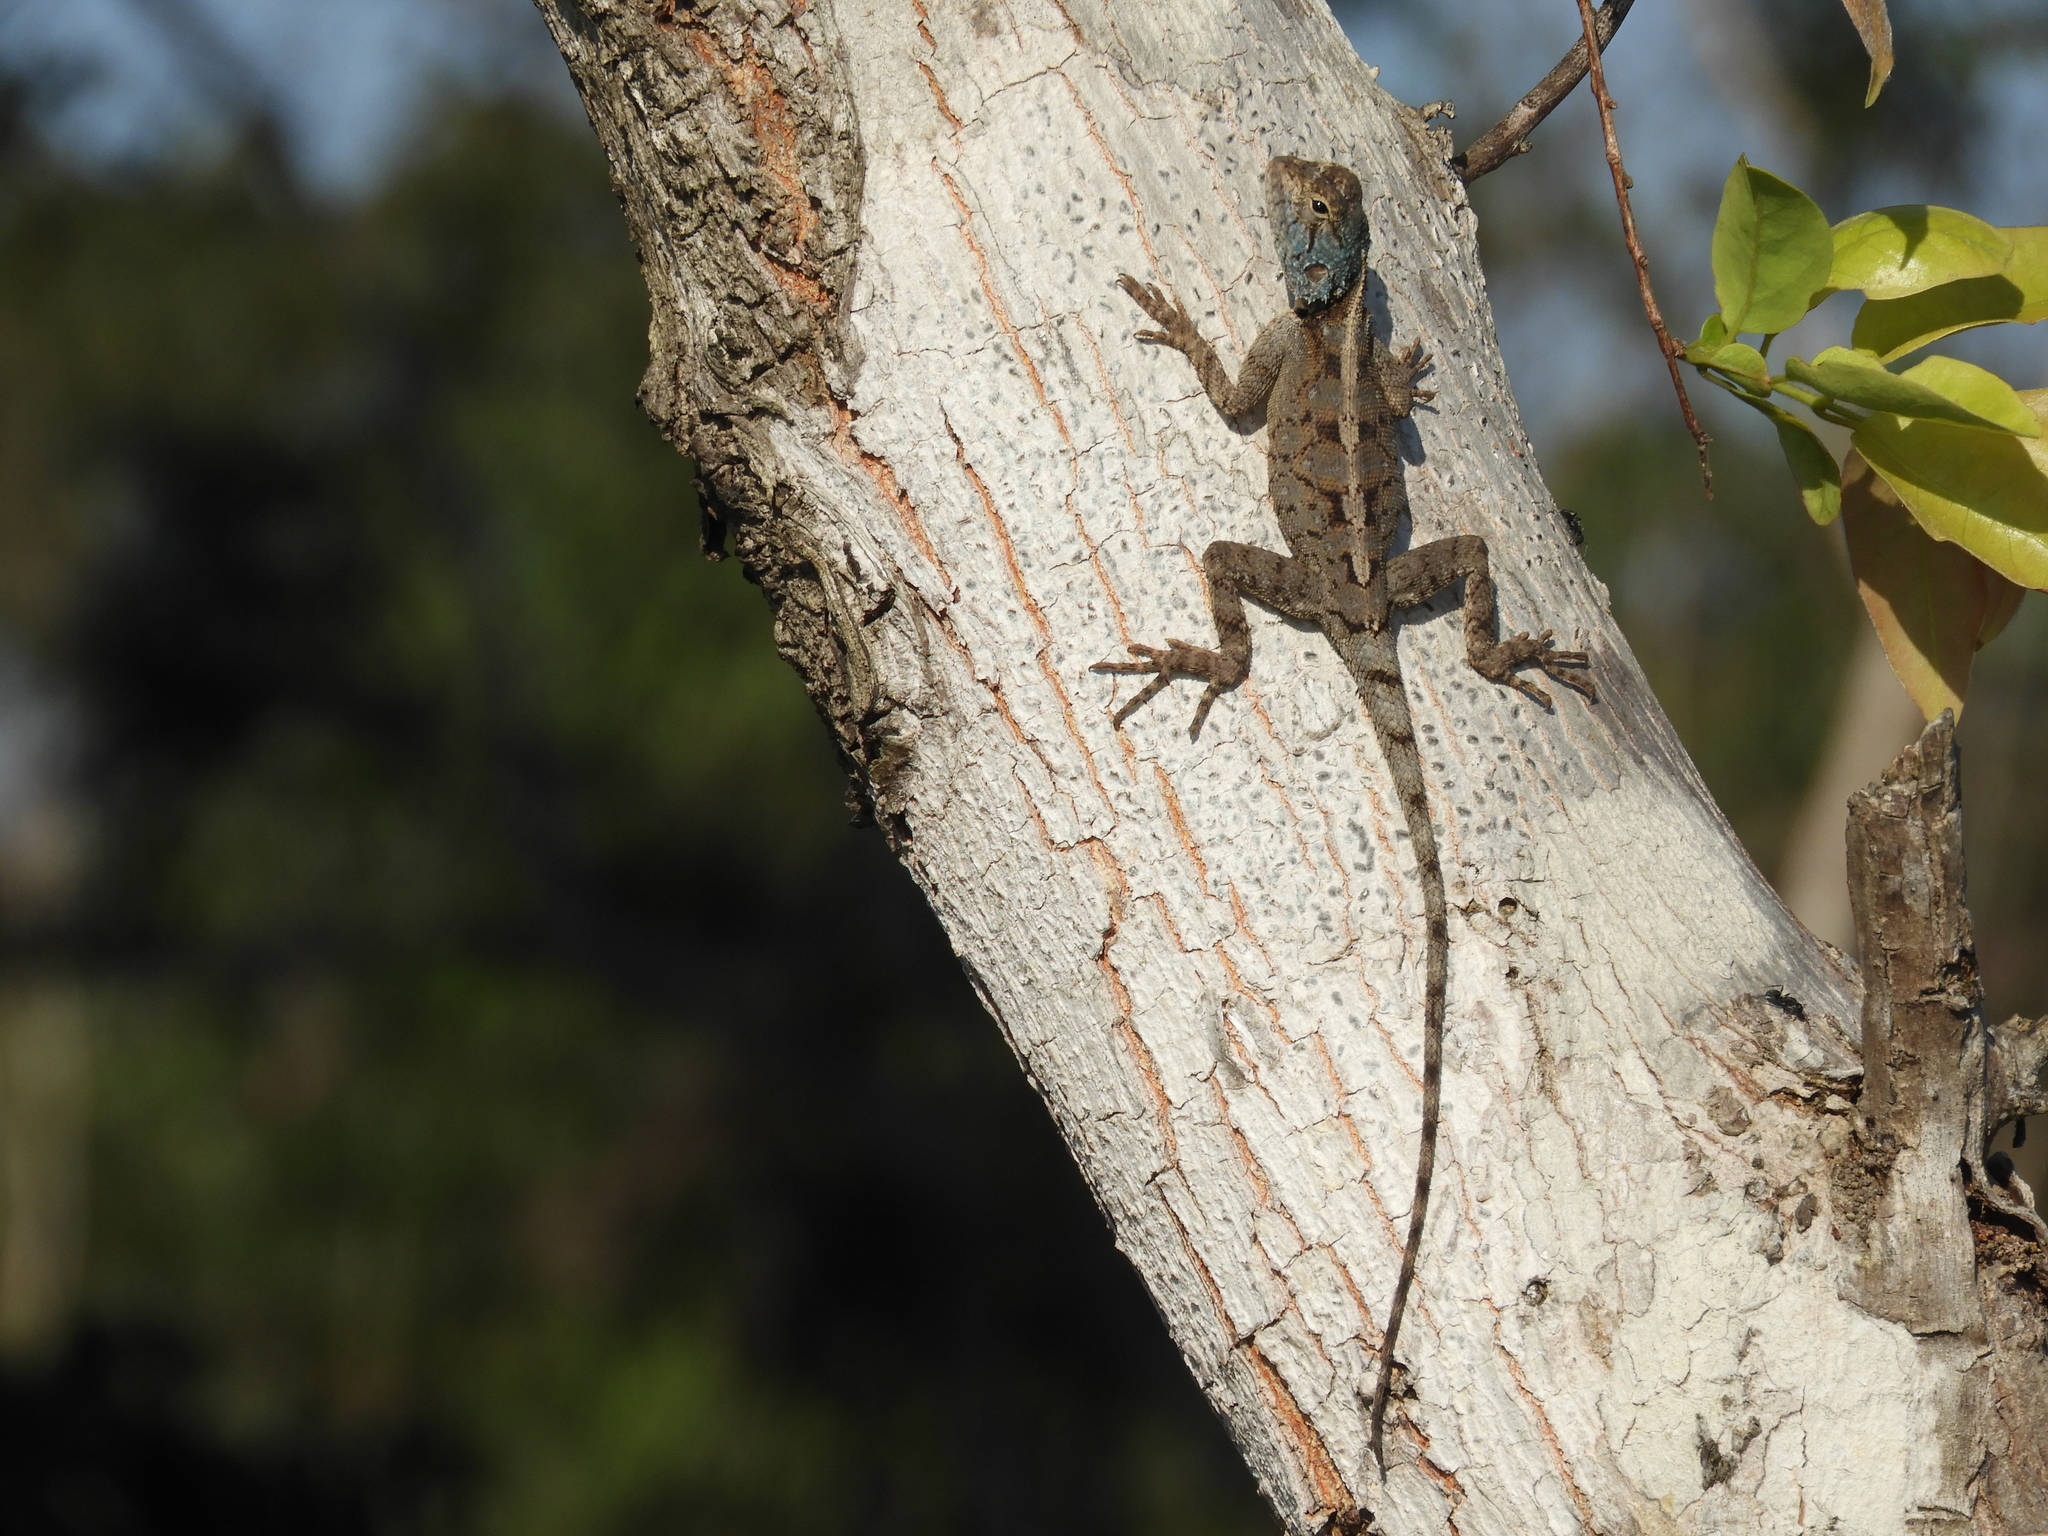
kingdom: Animalia
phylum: Chordata
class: Squamata
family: Agamidae
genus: Agama
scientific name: Agama mossambica
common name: Mozambique agama
